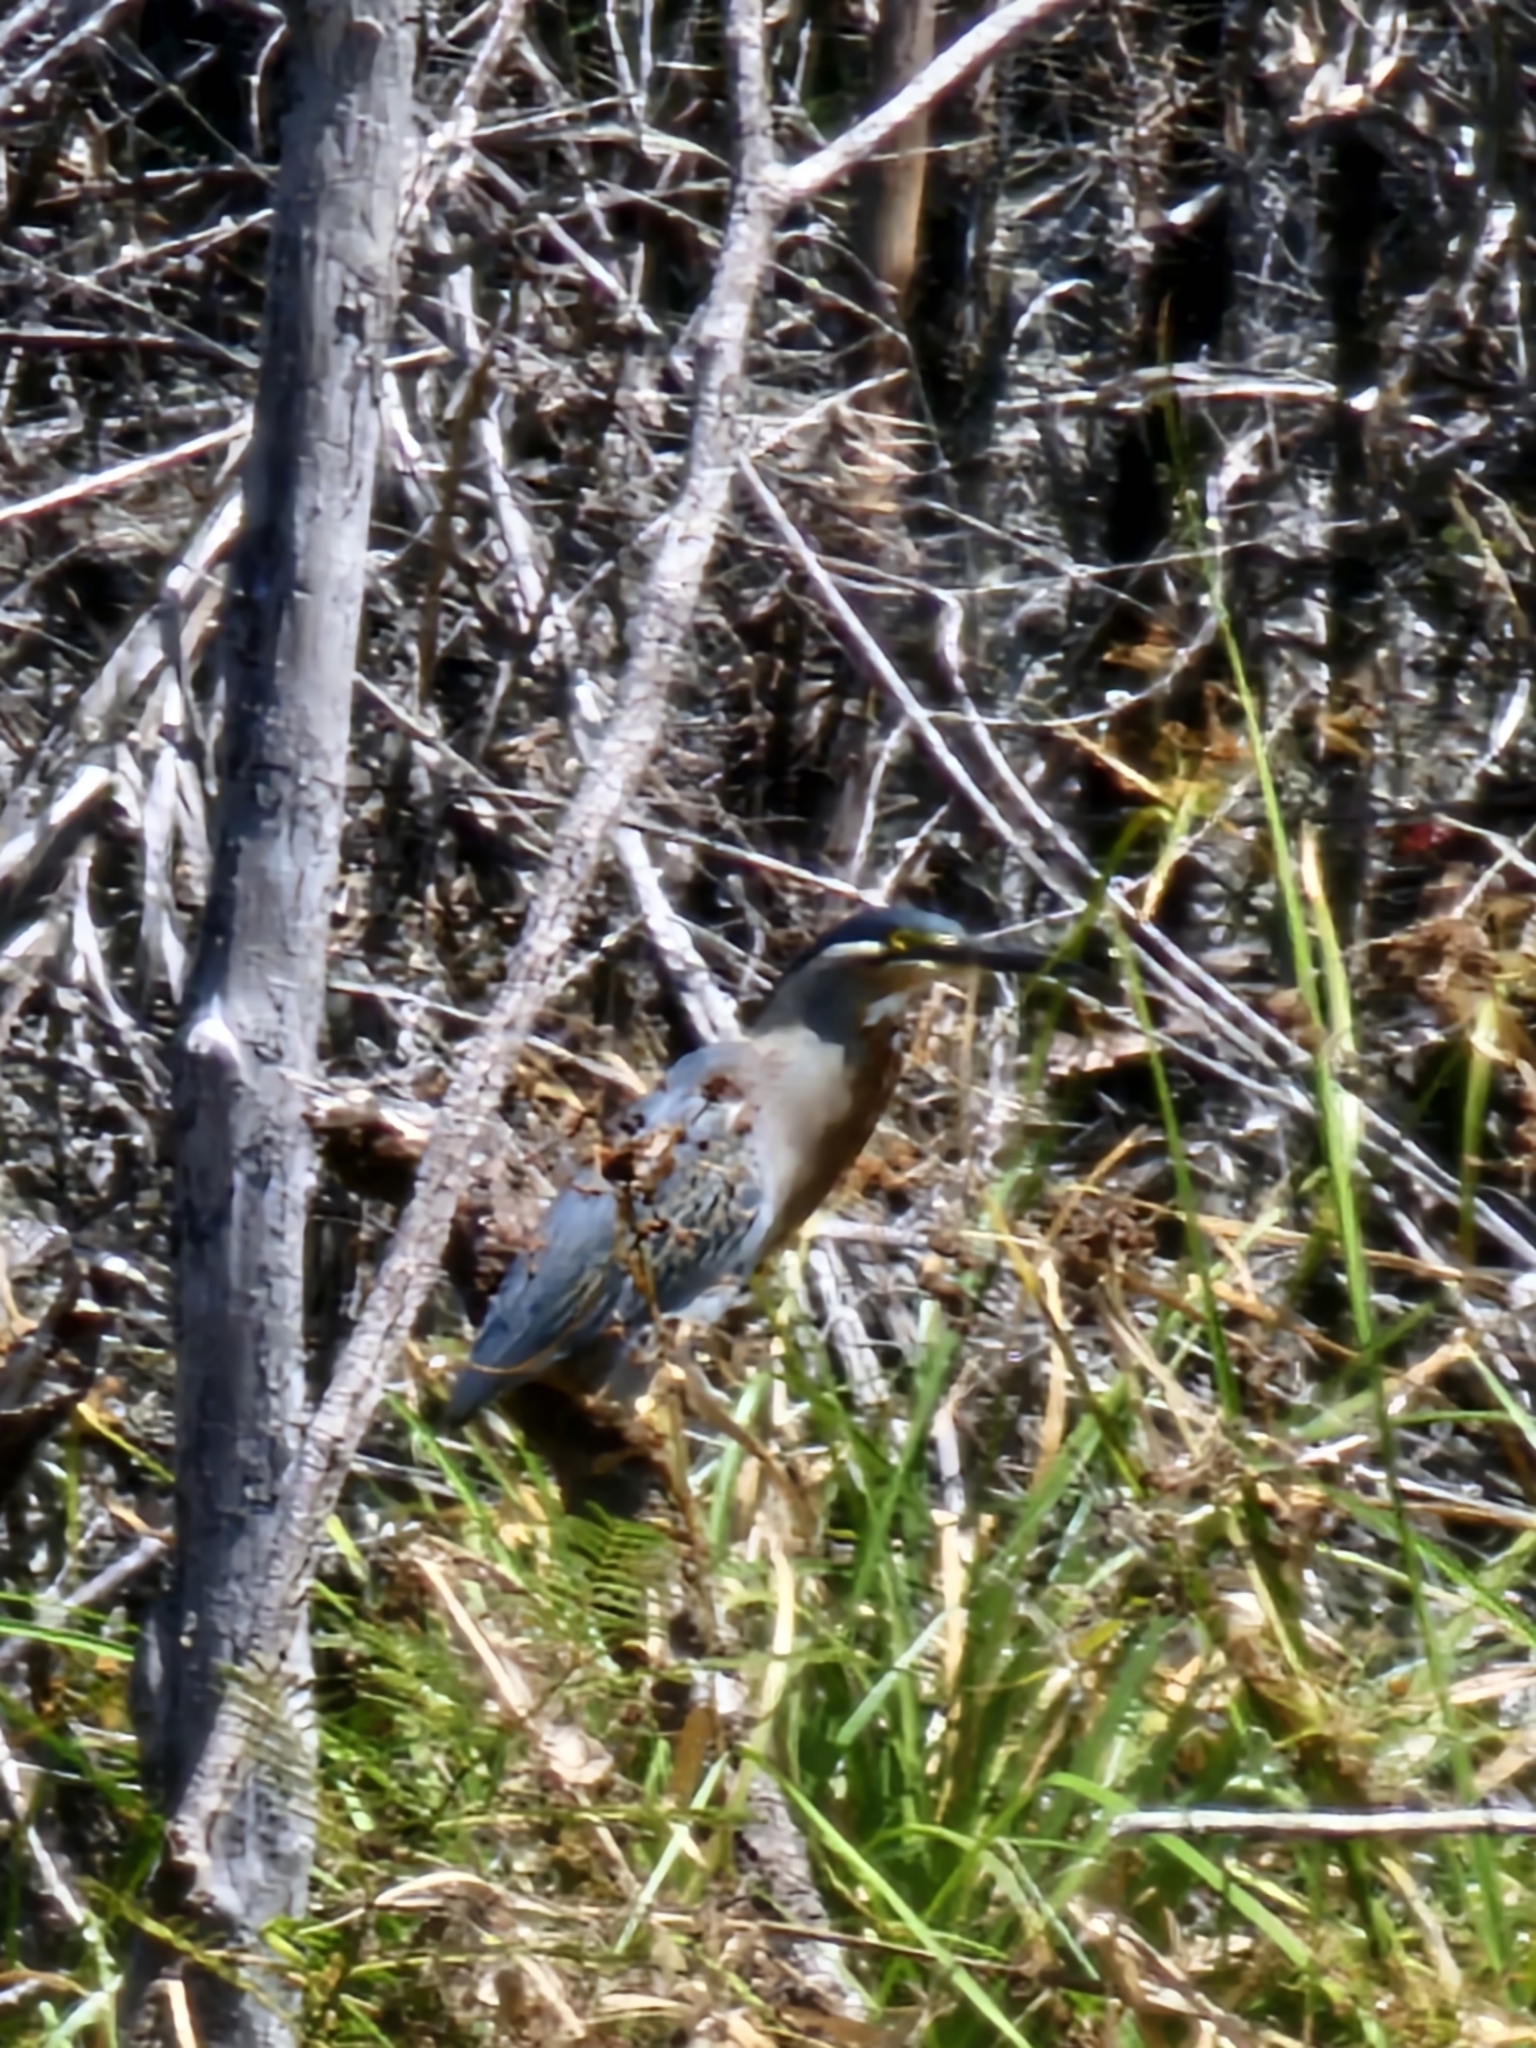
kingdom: Animalia
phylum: Chordata
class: Aves
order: Pelecaniformes
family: Ardeidae
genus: Butorides
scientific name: Butorides striata
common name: Striated heron
